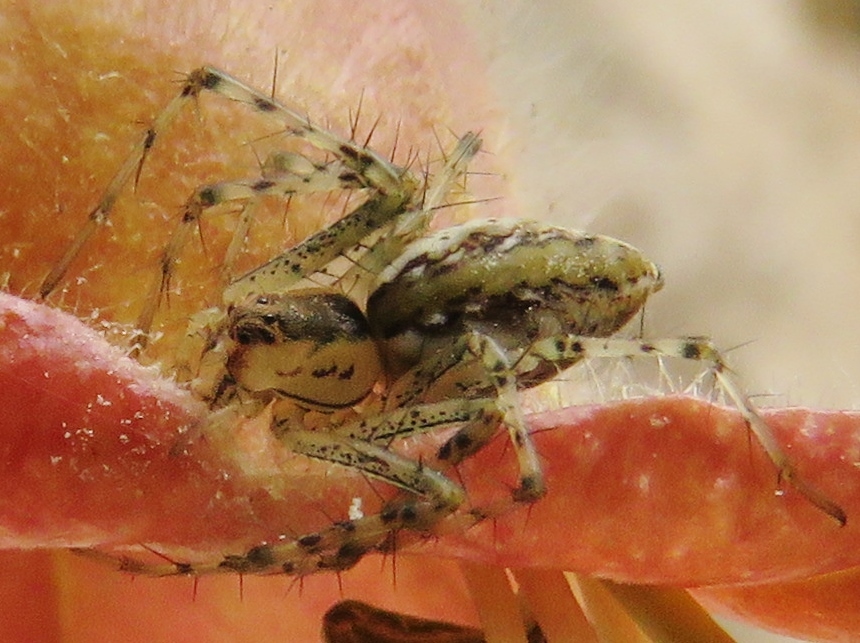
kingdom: Animalia
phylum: Arthropoda
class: Arachnida
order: Araneae
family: Oxyopidae
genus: Peucetia
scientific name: Peucetia flava
